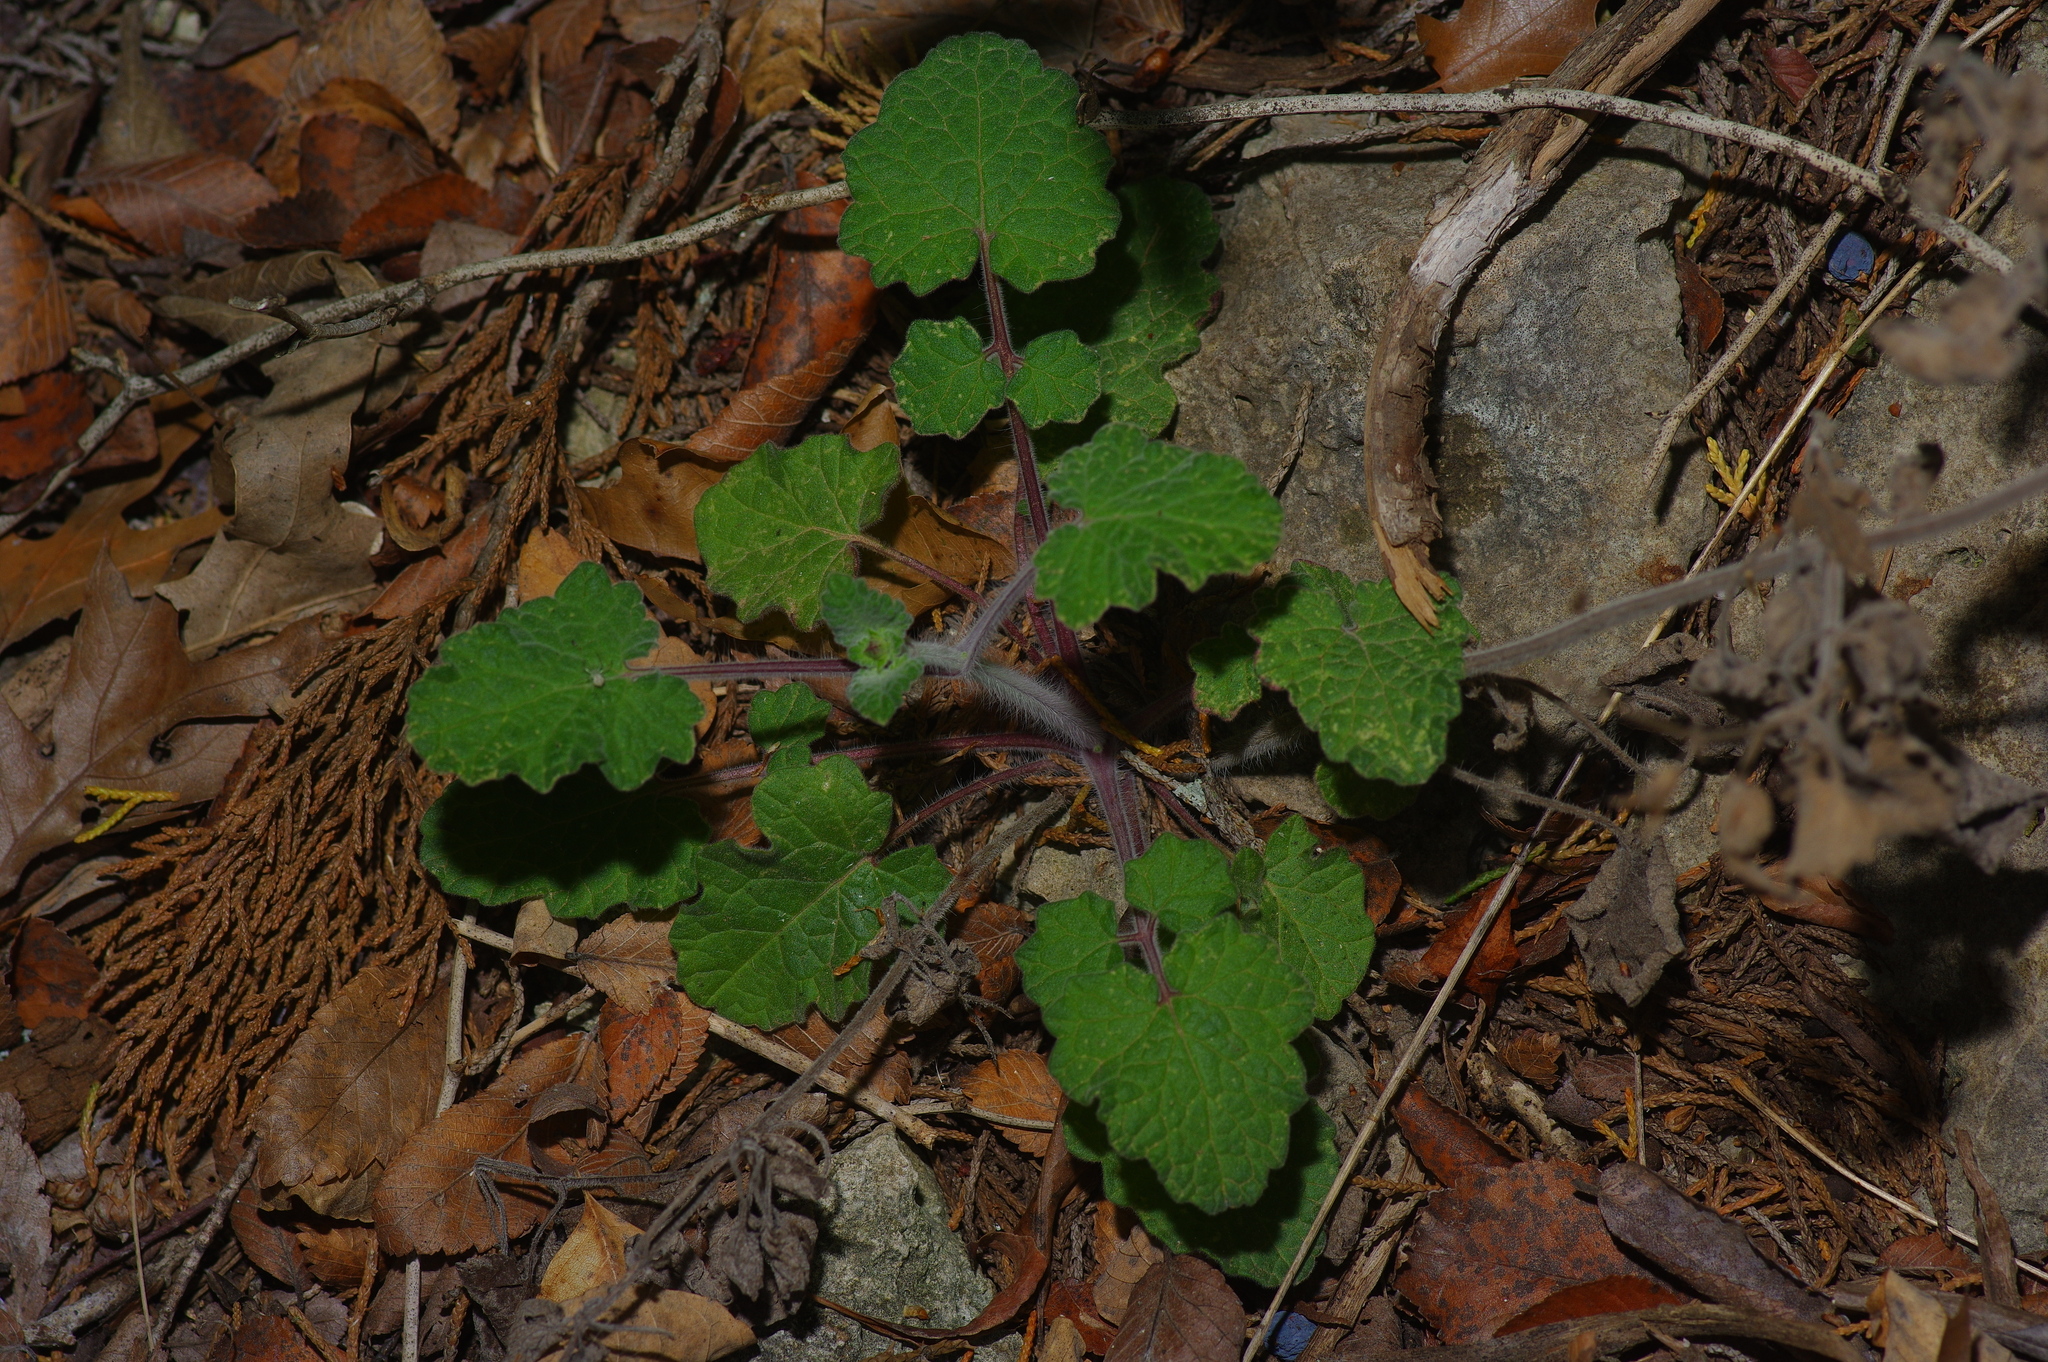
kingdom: Plantae
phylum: Tracheophyta
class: Magnoliopsida
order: Lamiales
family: Lamiaceae
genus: Salvia
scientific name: Salvia roemeriana
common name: Cedar sage
